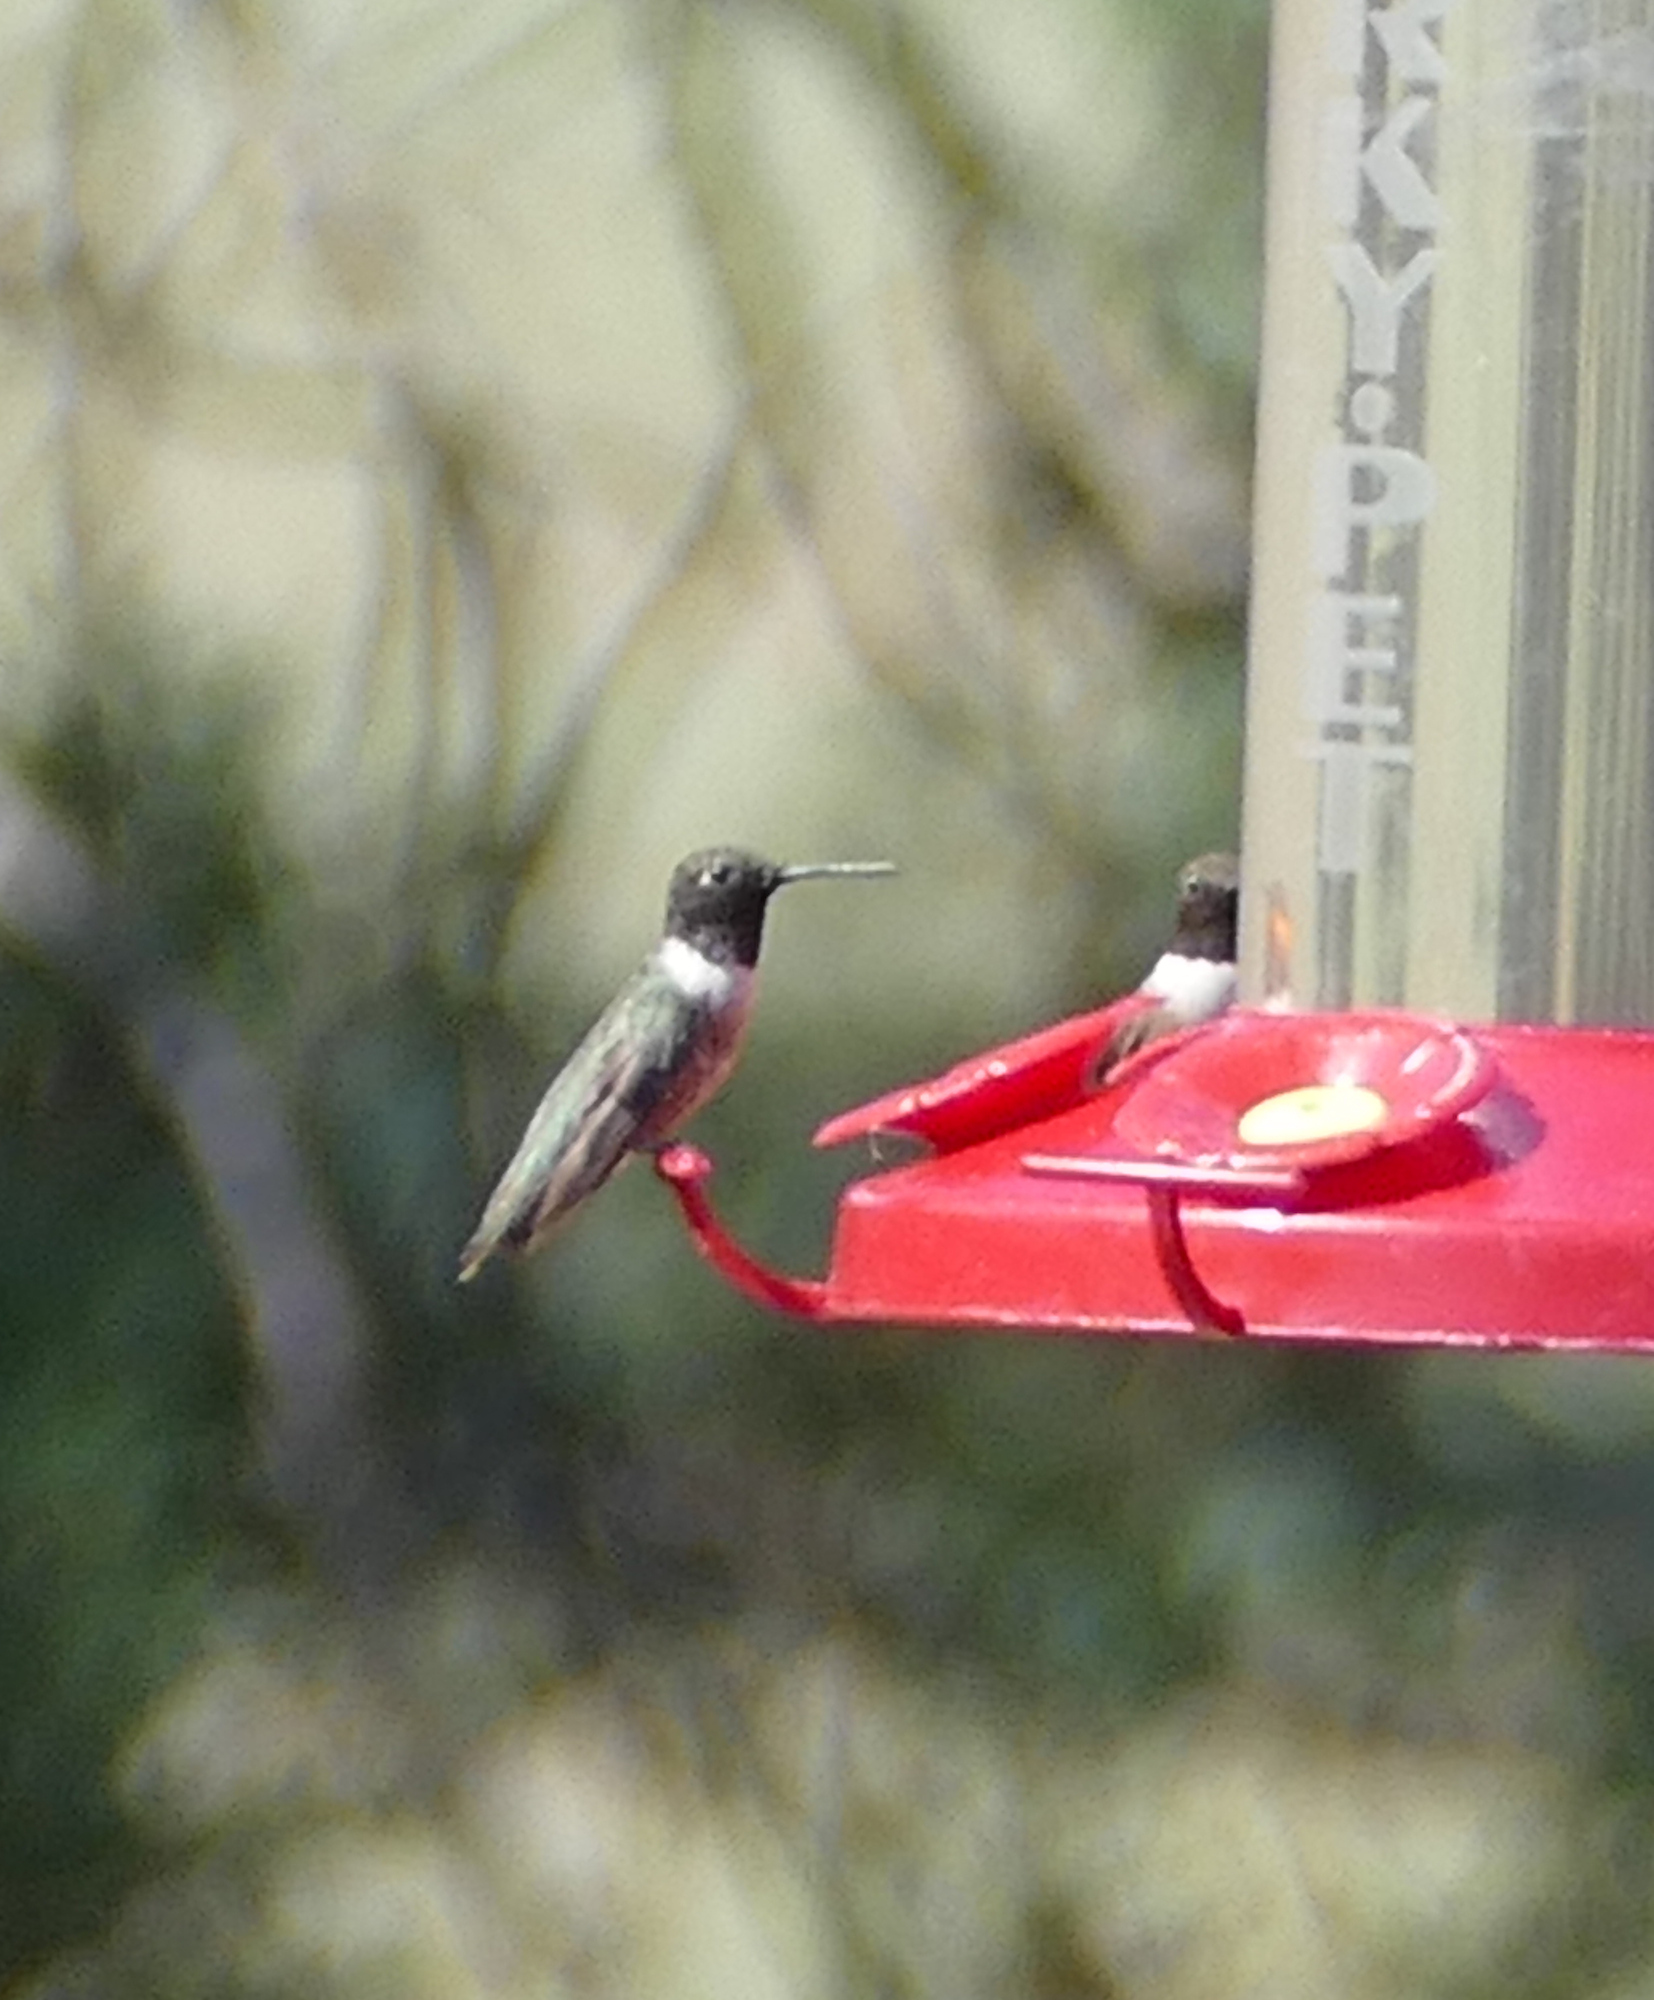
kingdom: Animalia
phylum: Chordata
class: Aves
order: Apodiformes
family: Trochilidae
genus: Archilochus
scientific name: Archilochus alexandri
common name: Black-chinned hummingbird
